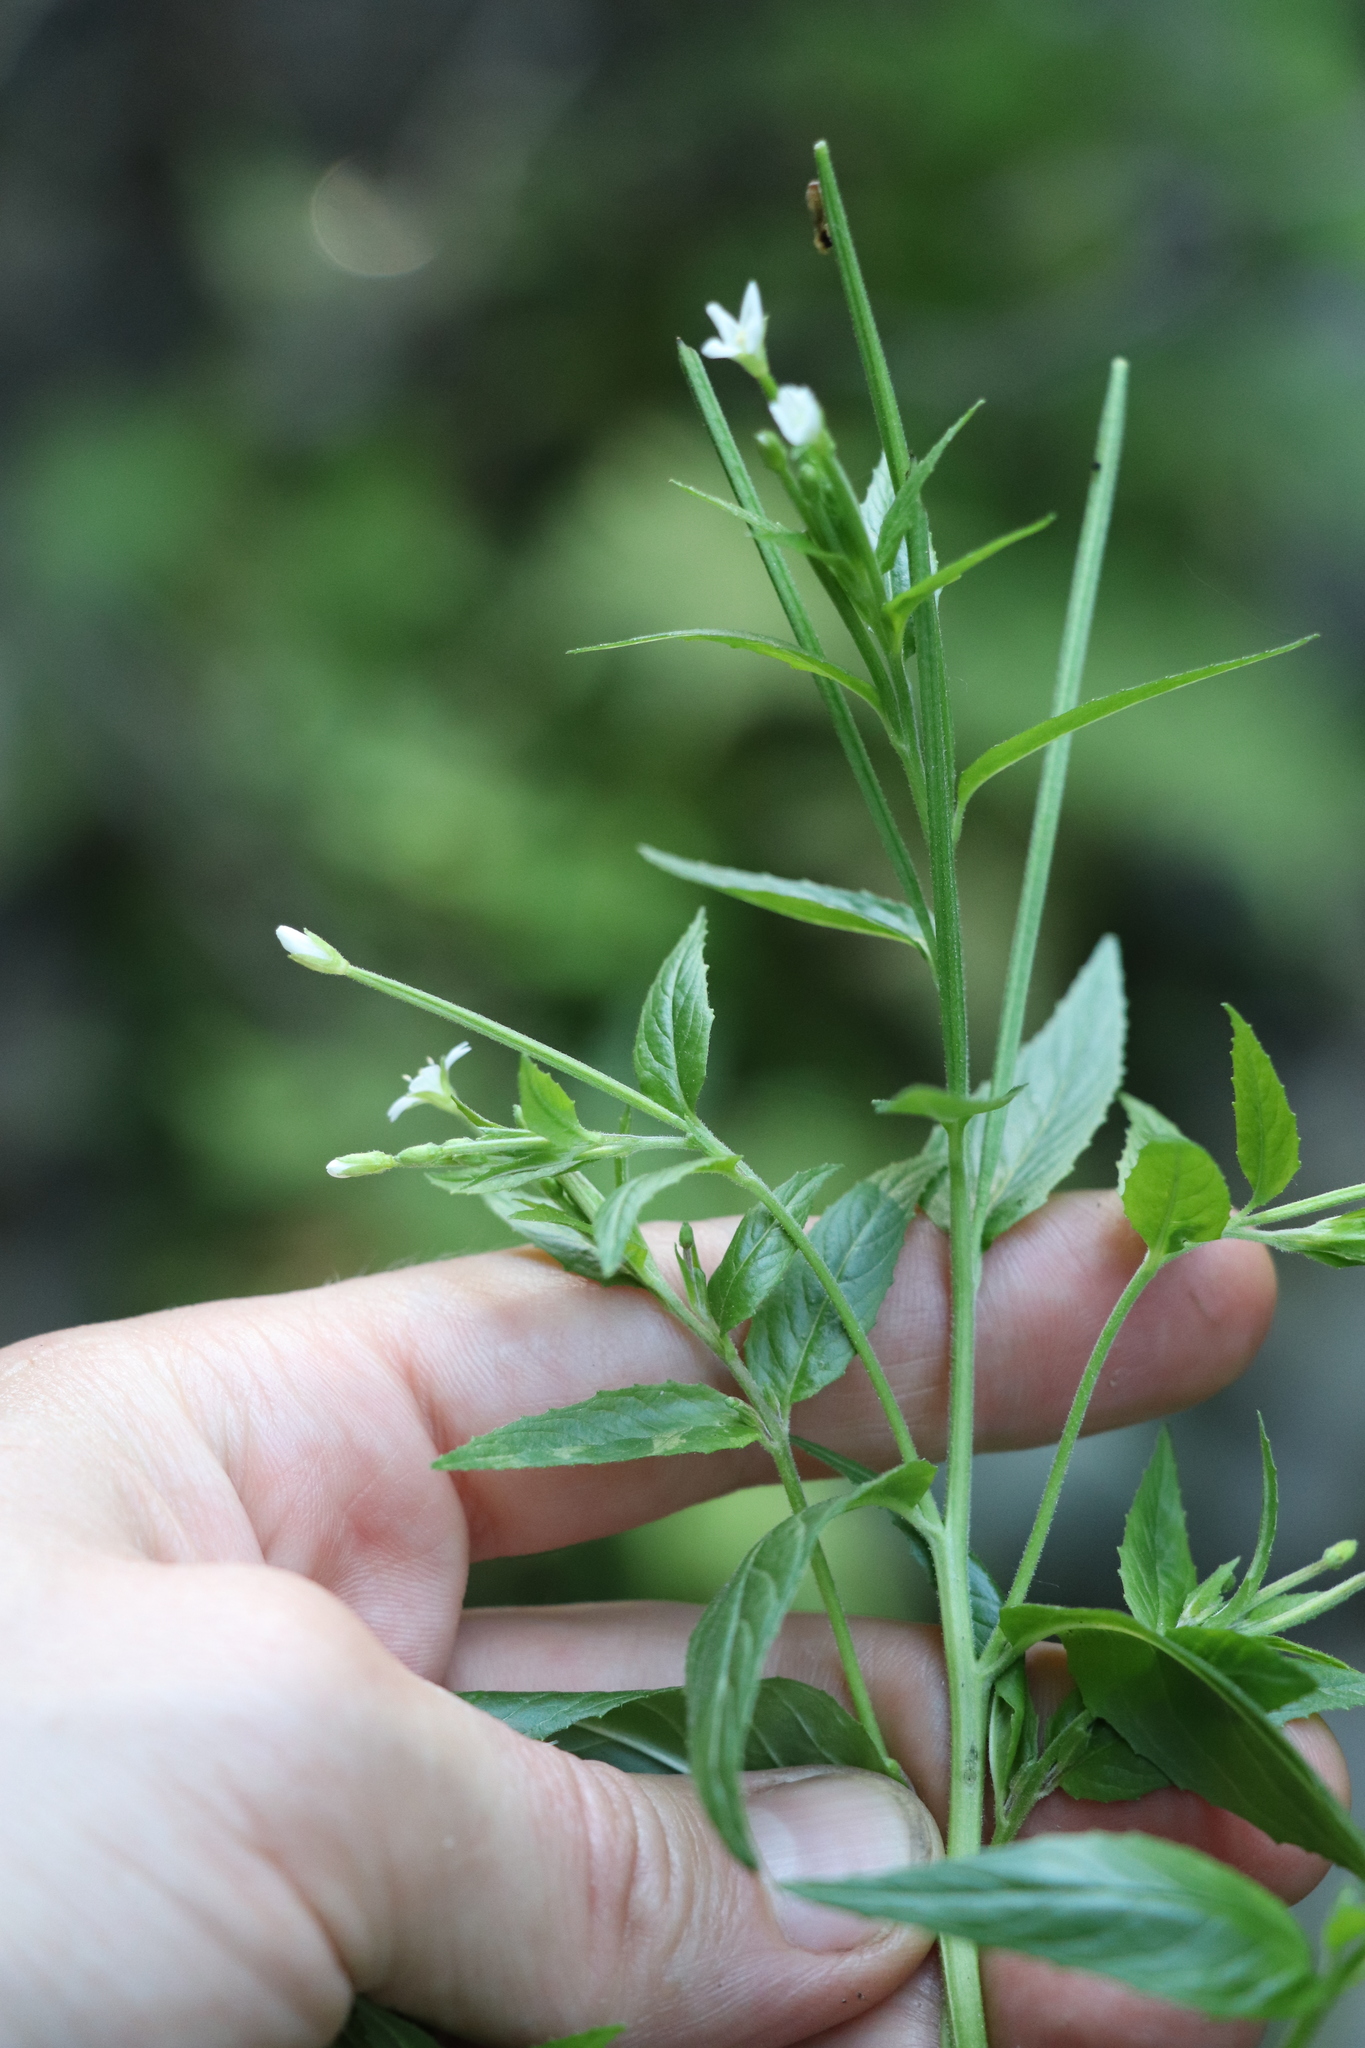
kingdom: Plantae
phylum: Tracheophyta
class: Magnoliopsida
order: Myrtales
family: Onagraceae
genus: Epilobium
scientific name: Epilobium pseudorubescens
